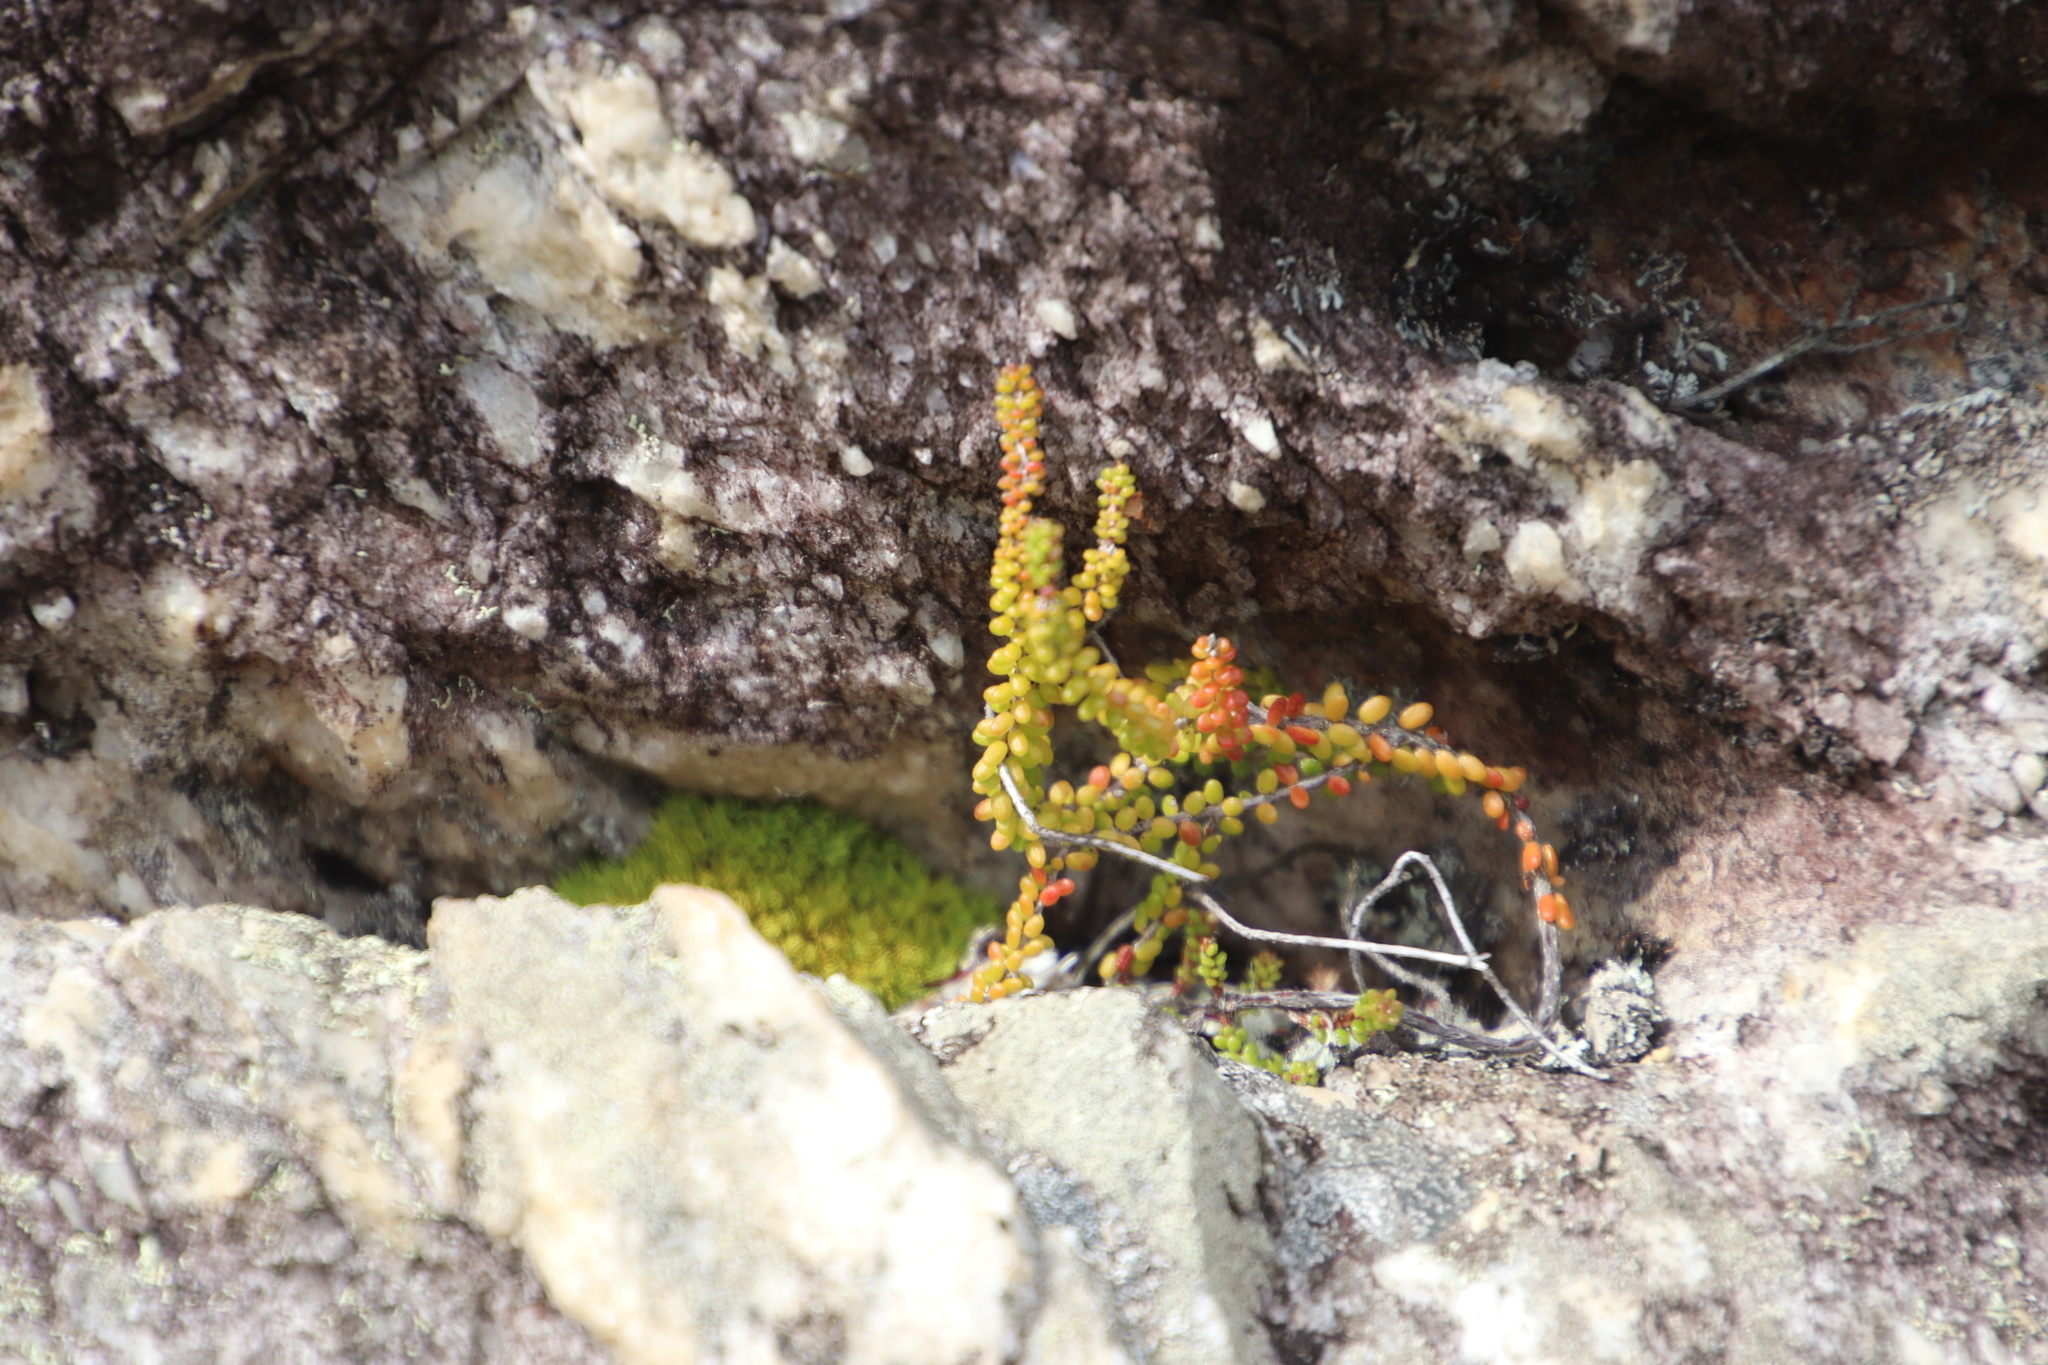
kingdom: Plantae
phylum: Tracheophyta
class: Magnoliopsida
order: Ericales
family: Ericaceae
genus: Erica
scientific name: Erica petrophila
